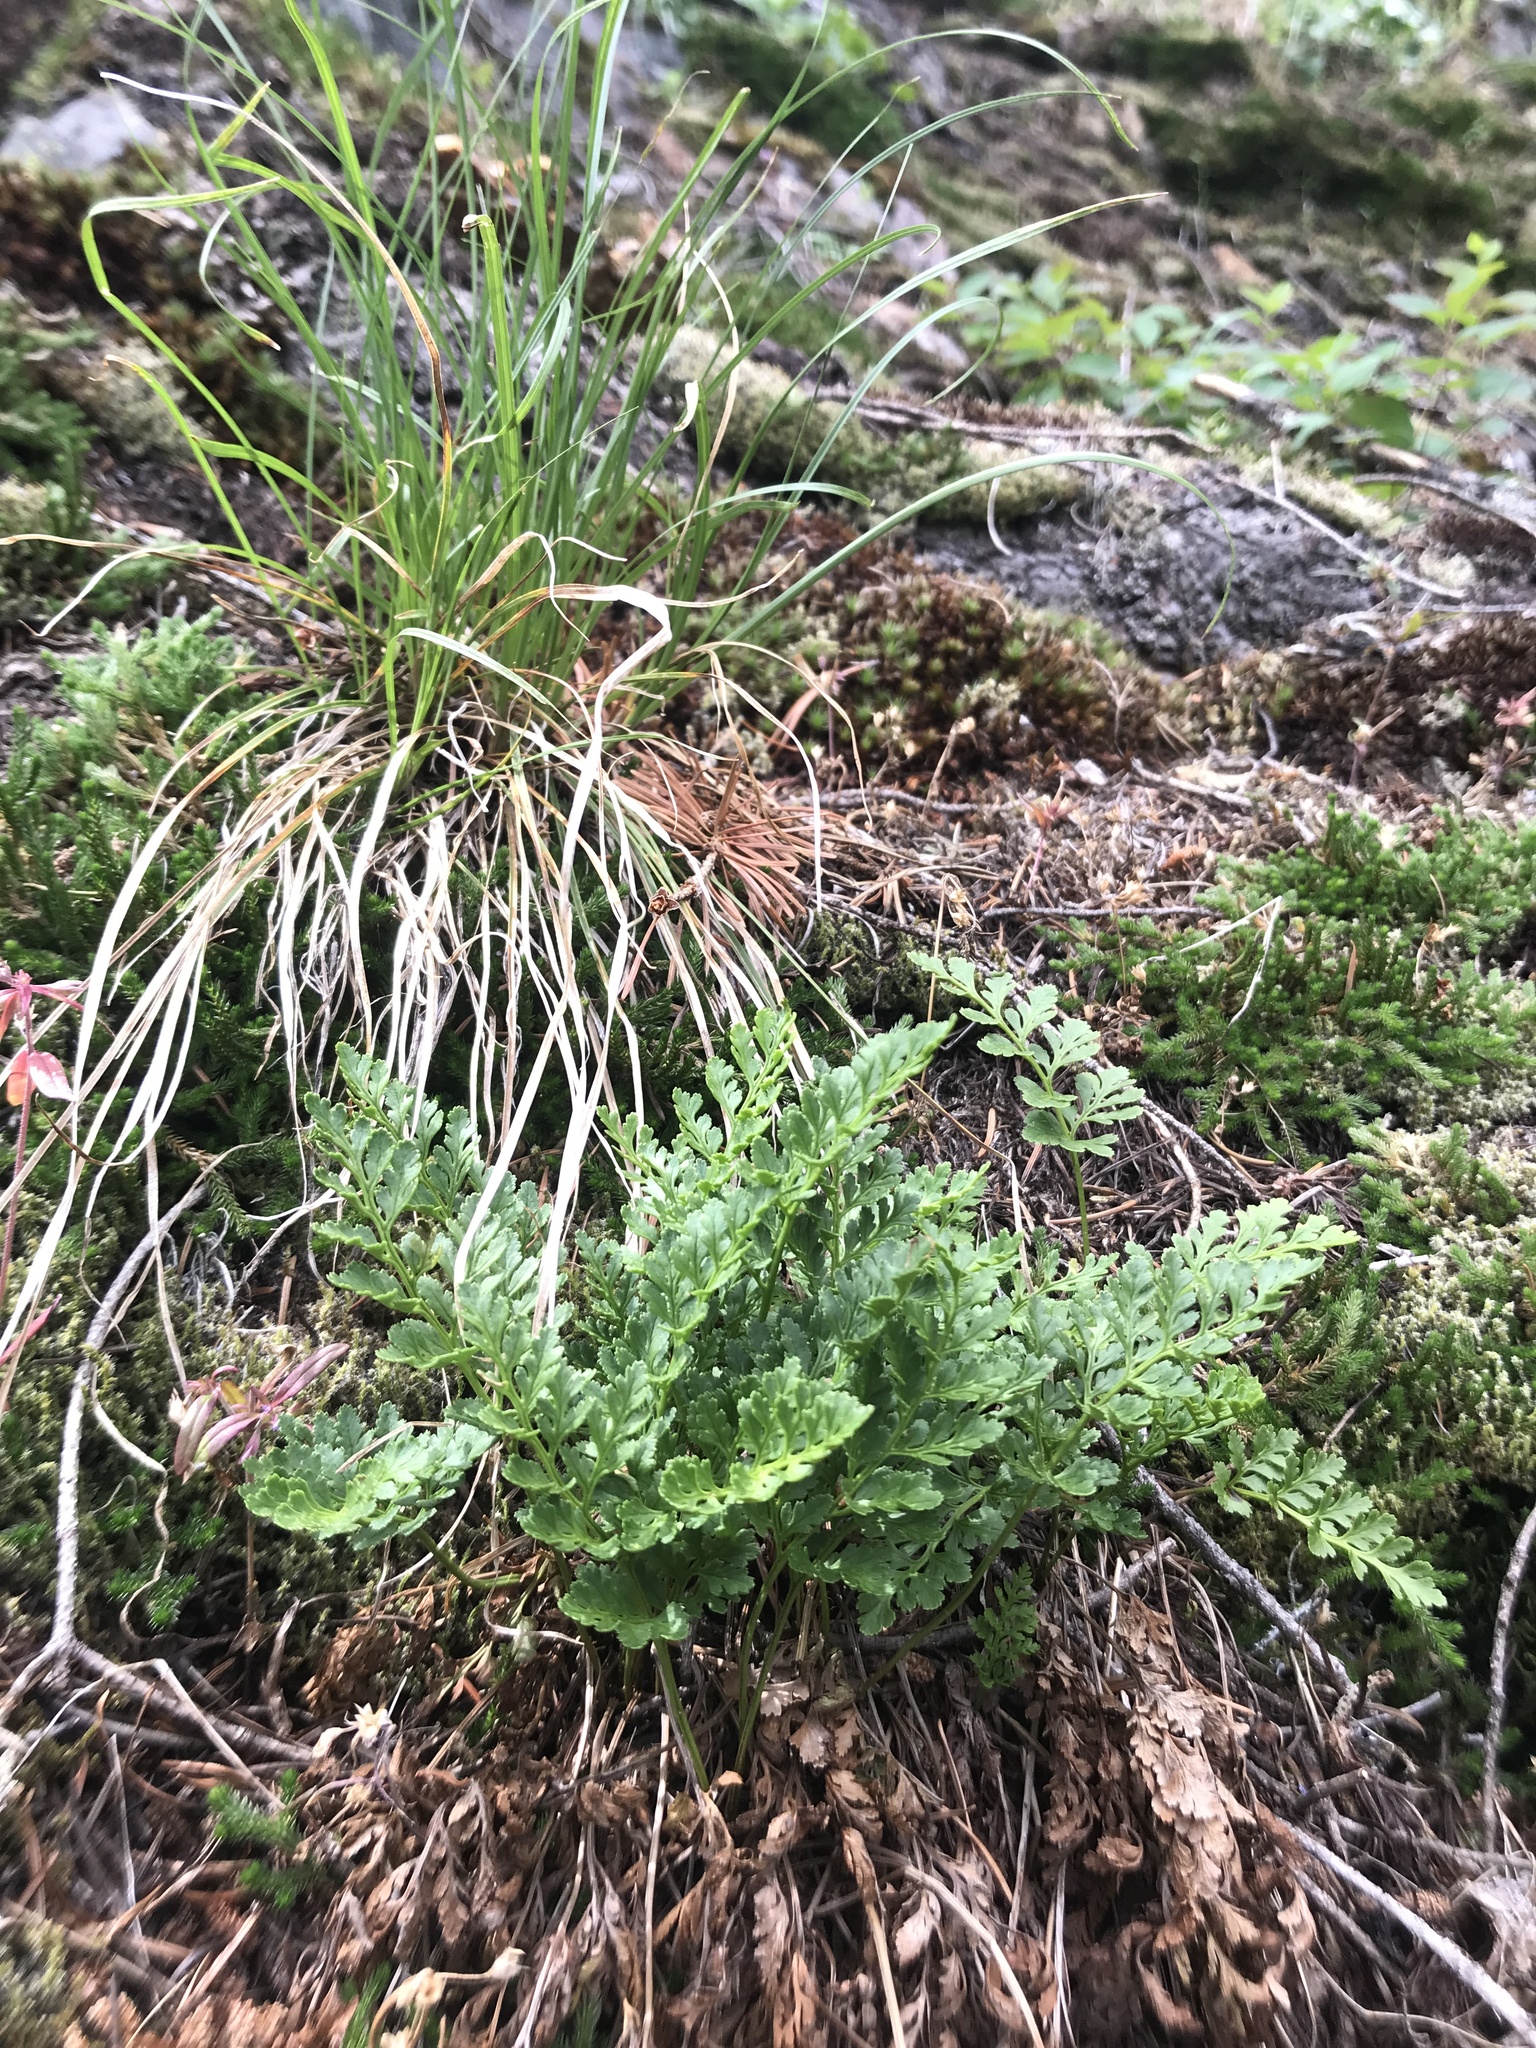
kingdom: Plantae
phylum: Tracheophyta
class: Polypodiopsida
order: Polypodiales
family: Pteridaceae
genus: Cryptogramma
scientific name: Cryptogramma acrostichoides
